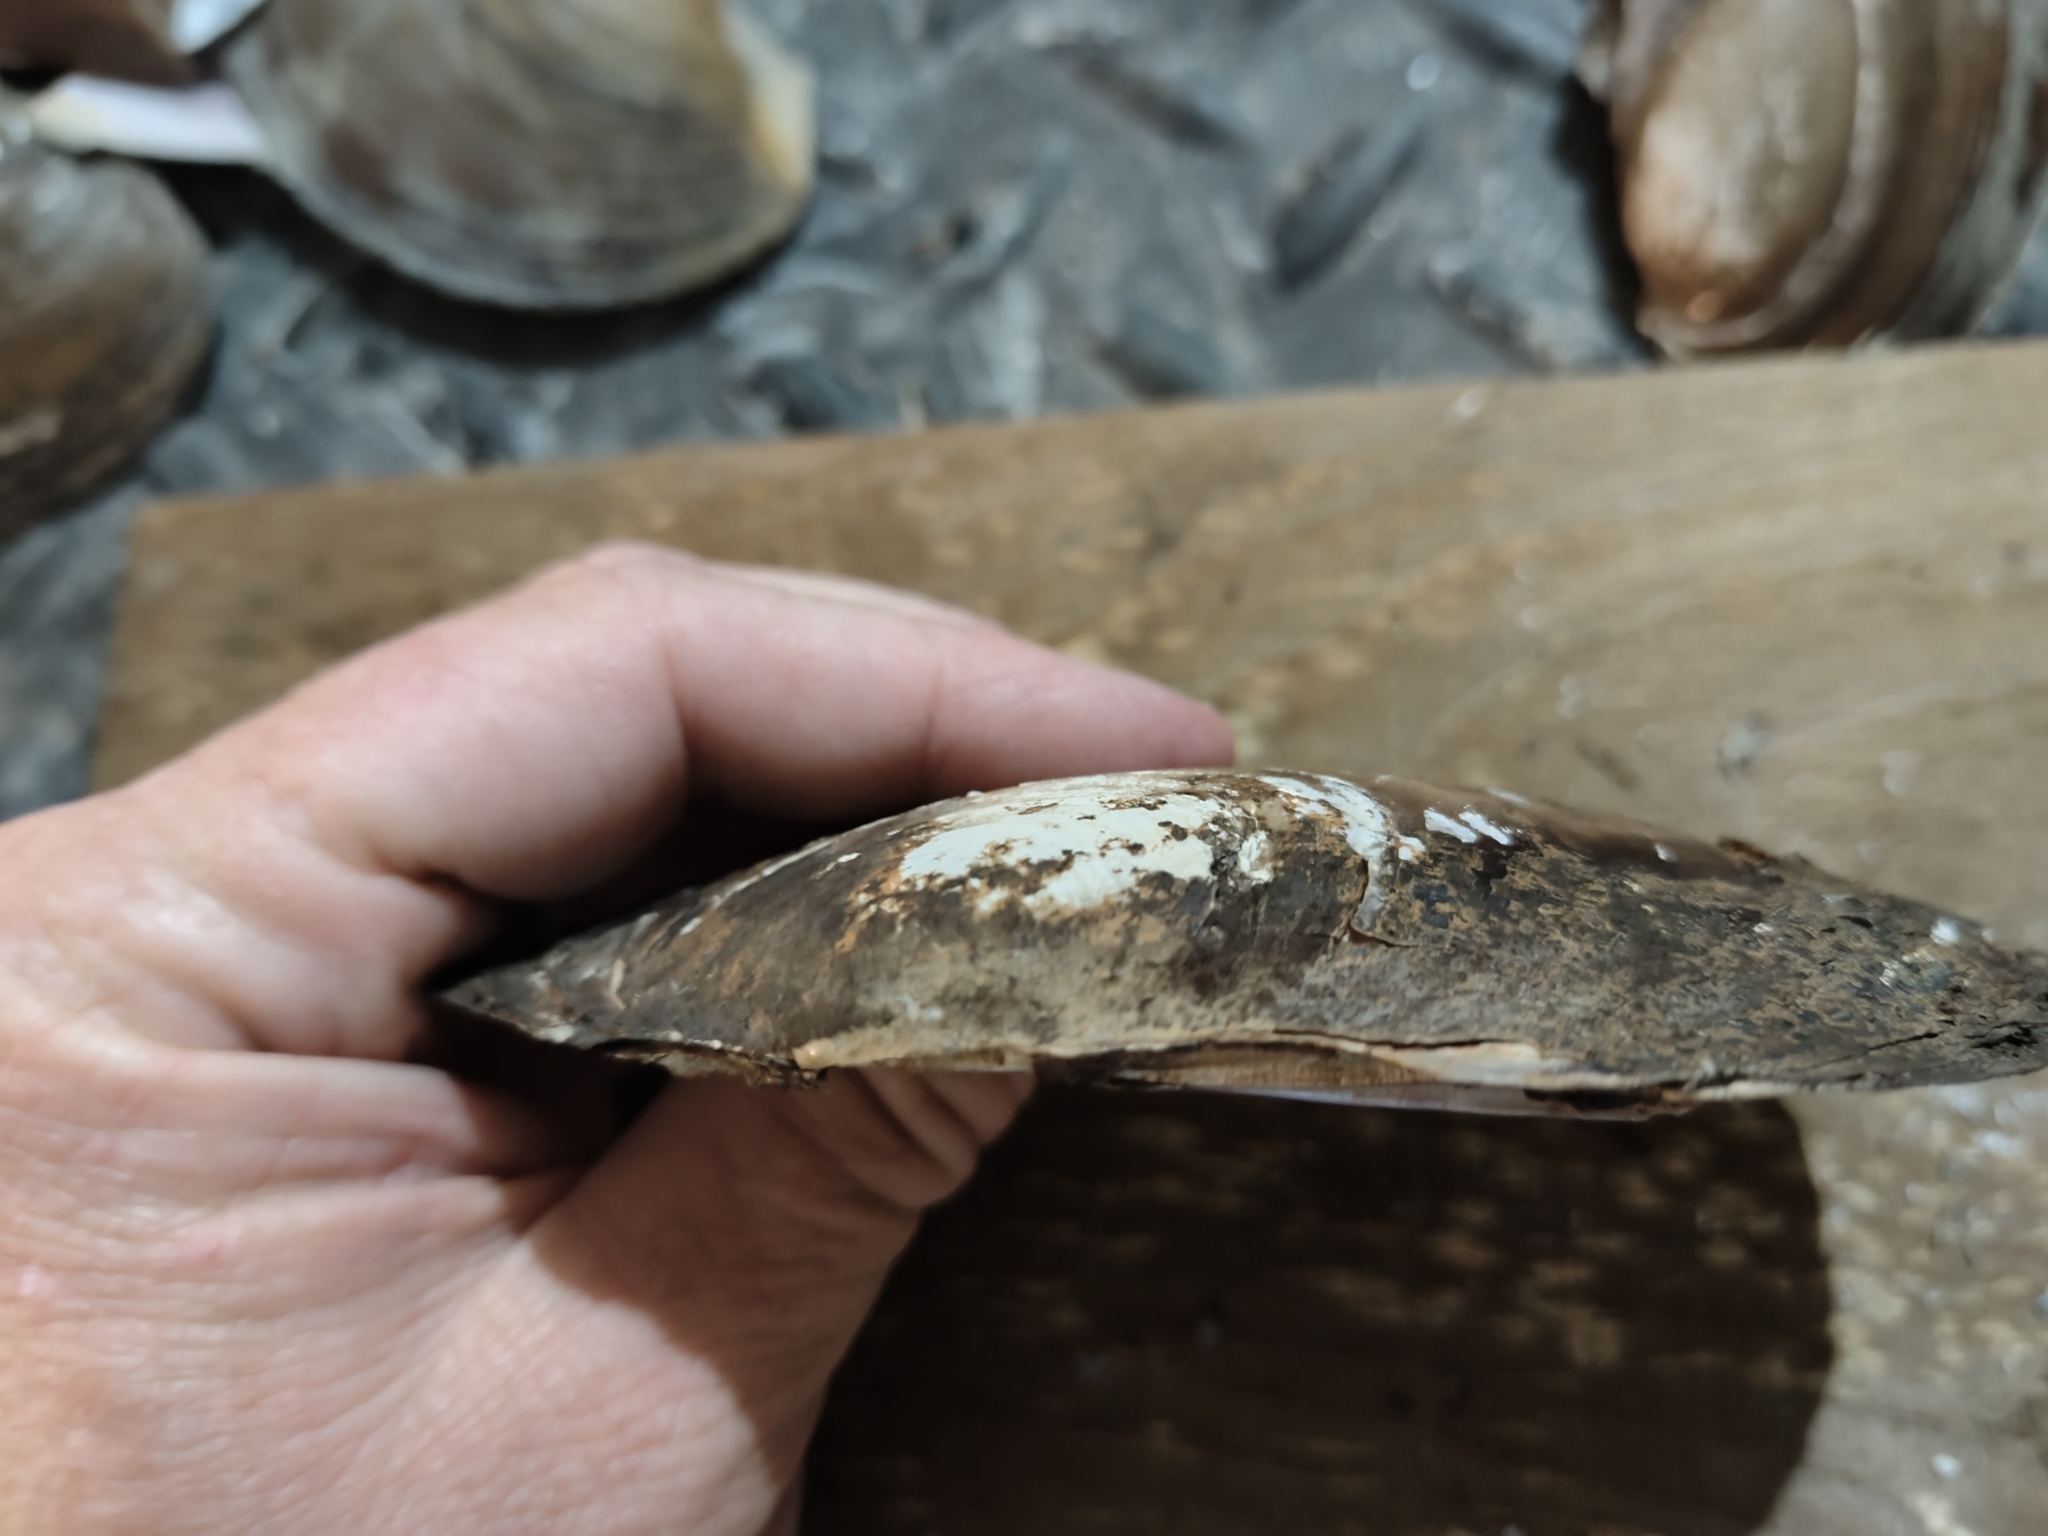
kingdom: Animalia
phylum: Mollusca
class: Bivalvia
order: Unionida
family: Unionidae
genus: Potamilus
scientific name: Potamilus ohiensis
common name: Pink papershell
